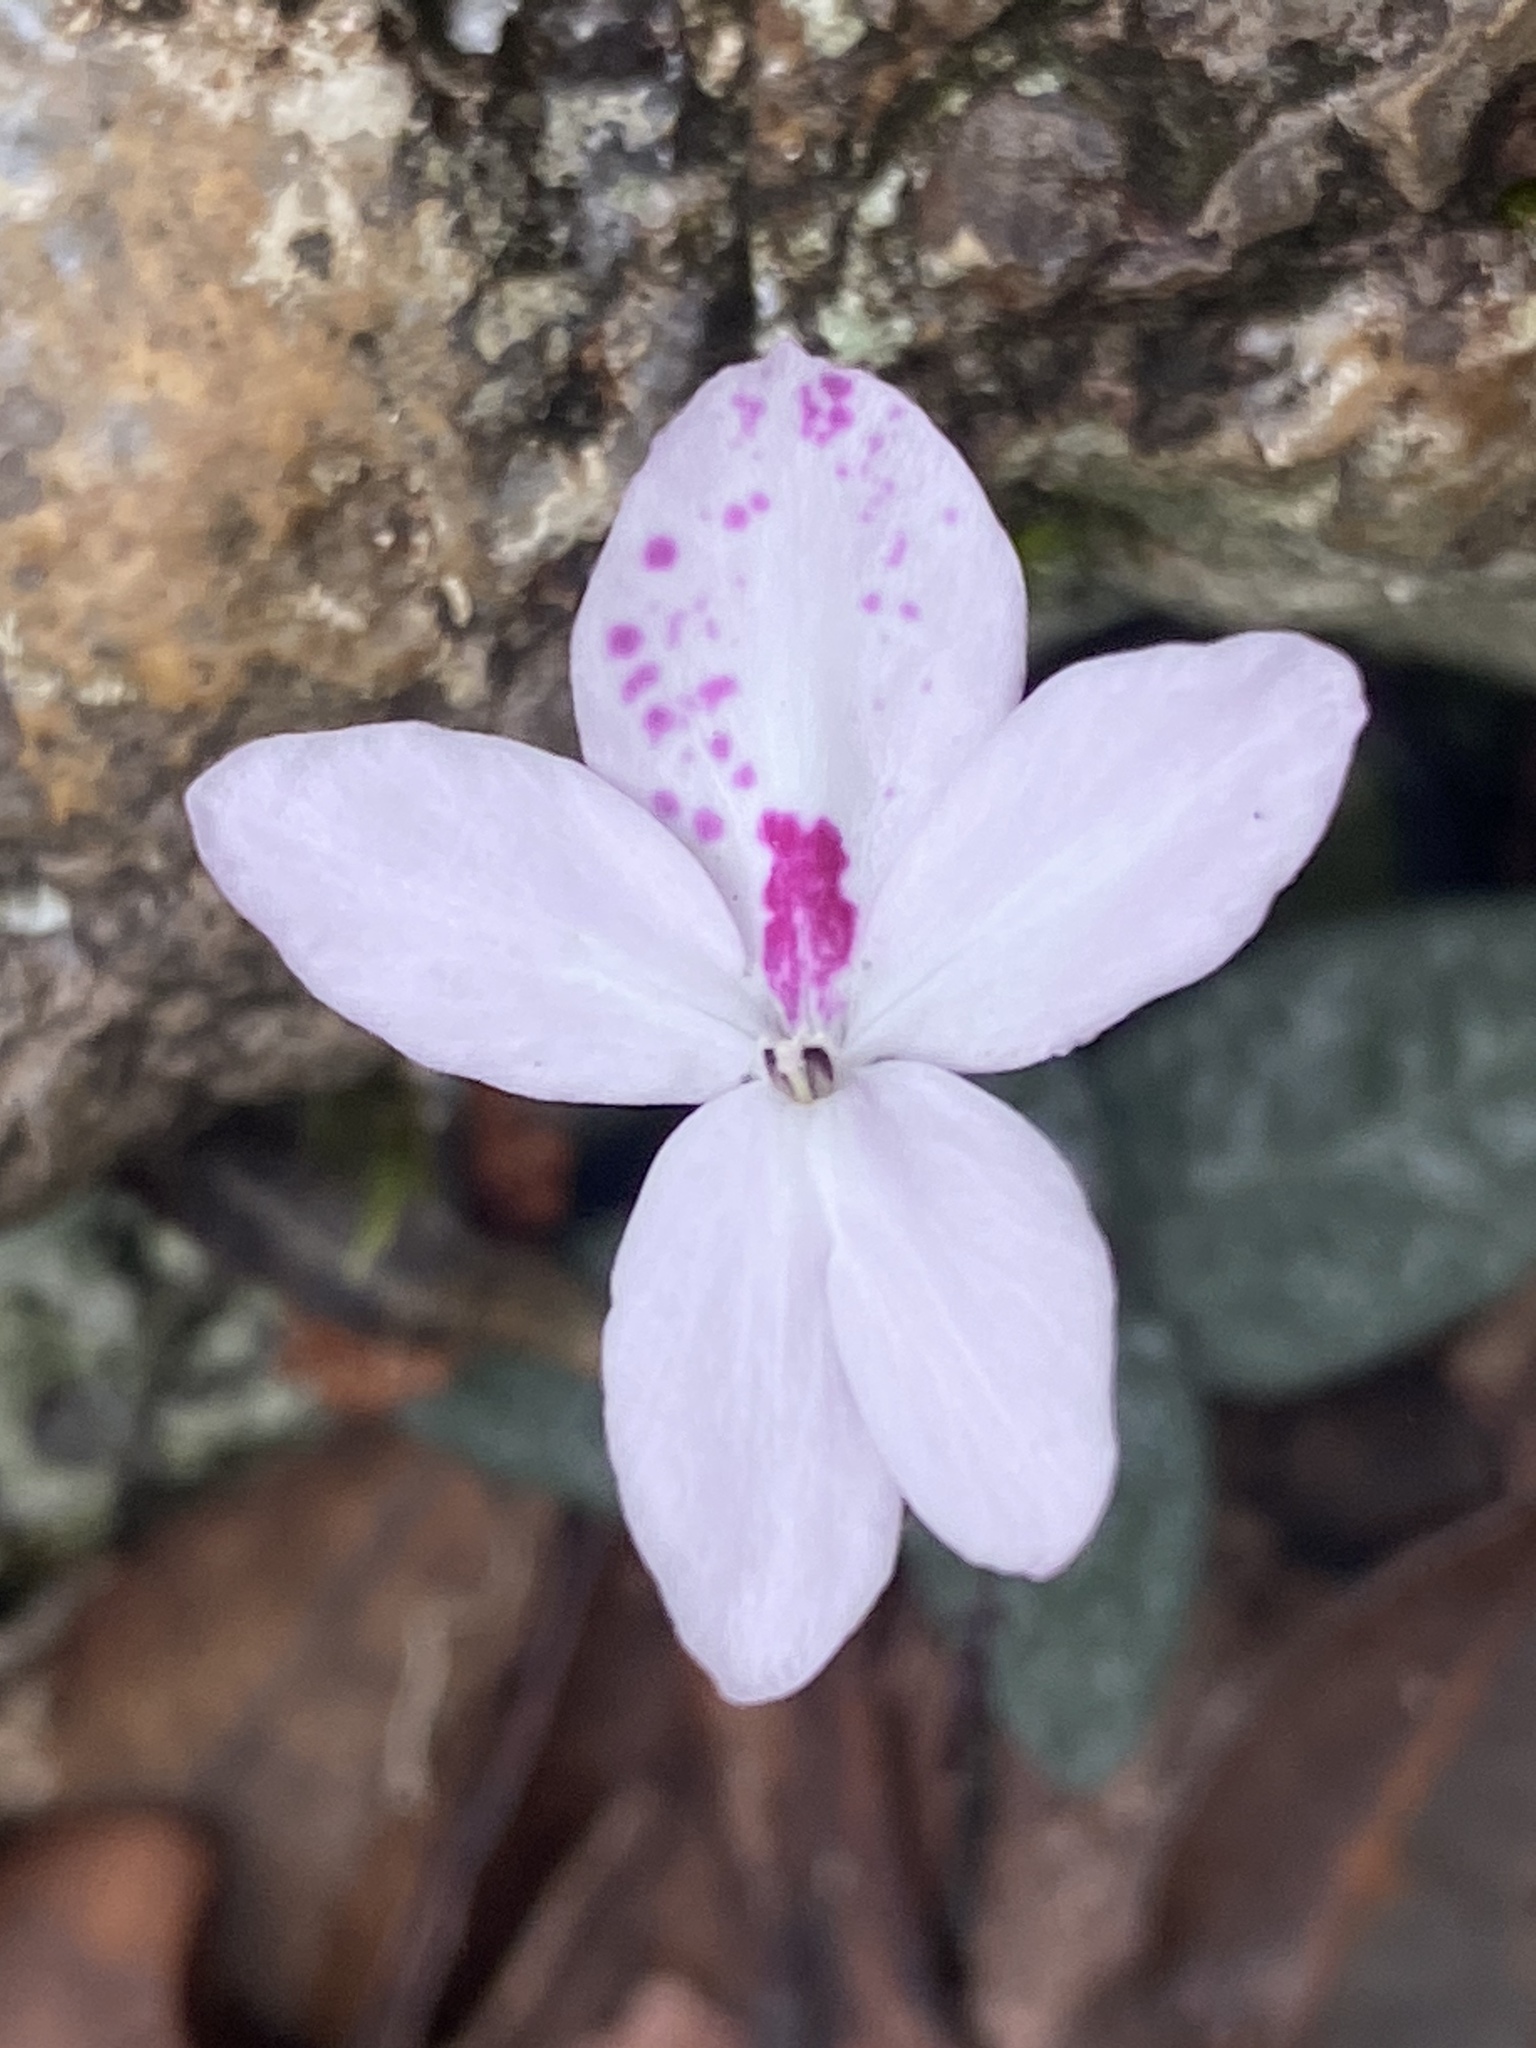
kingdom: Plantae
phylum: Tracheophyta
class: Magnoliopsida
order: Lamiales
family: Acanthaceae
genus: Pseuderanthemum
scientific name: Pseuderanthemum variabile
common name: Night and afternoon
